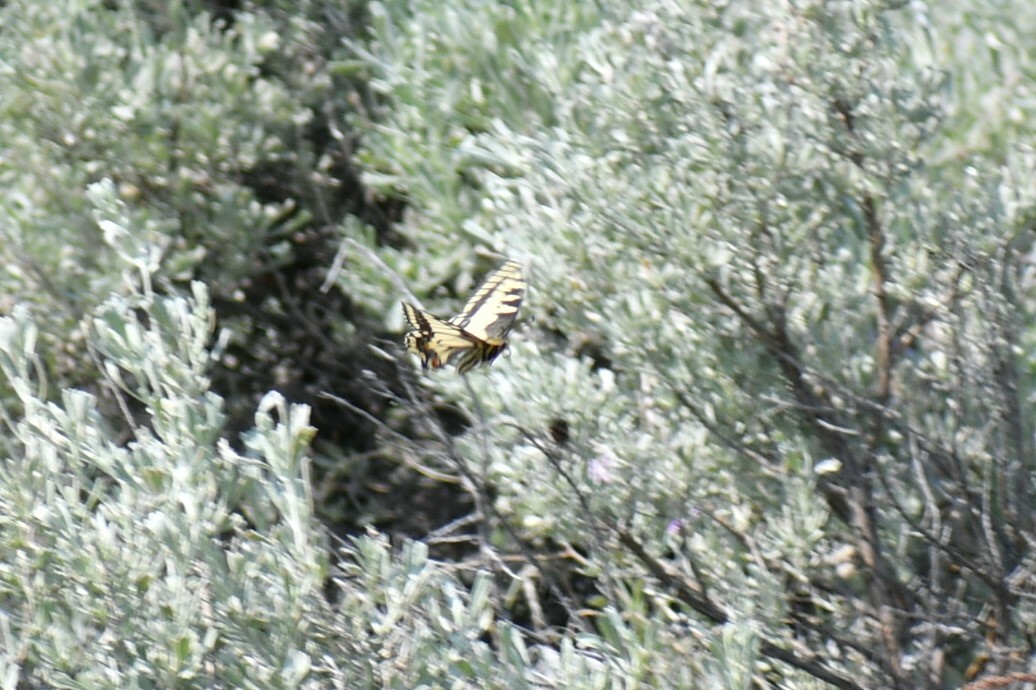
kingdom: Animalia
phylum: Arthropoda
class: Insecta
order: Lepidoptera
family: Papilionidae
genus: Papilio
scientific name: Papilio
